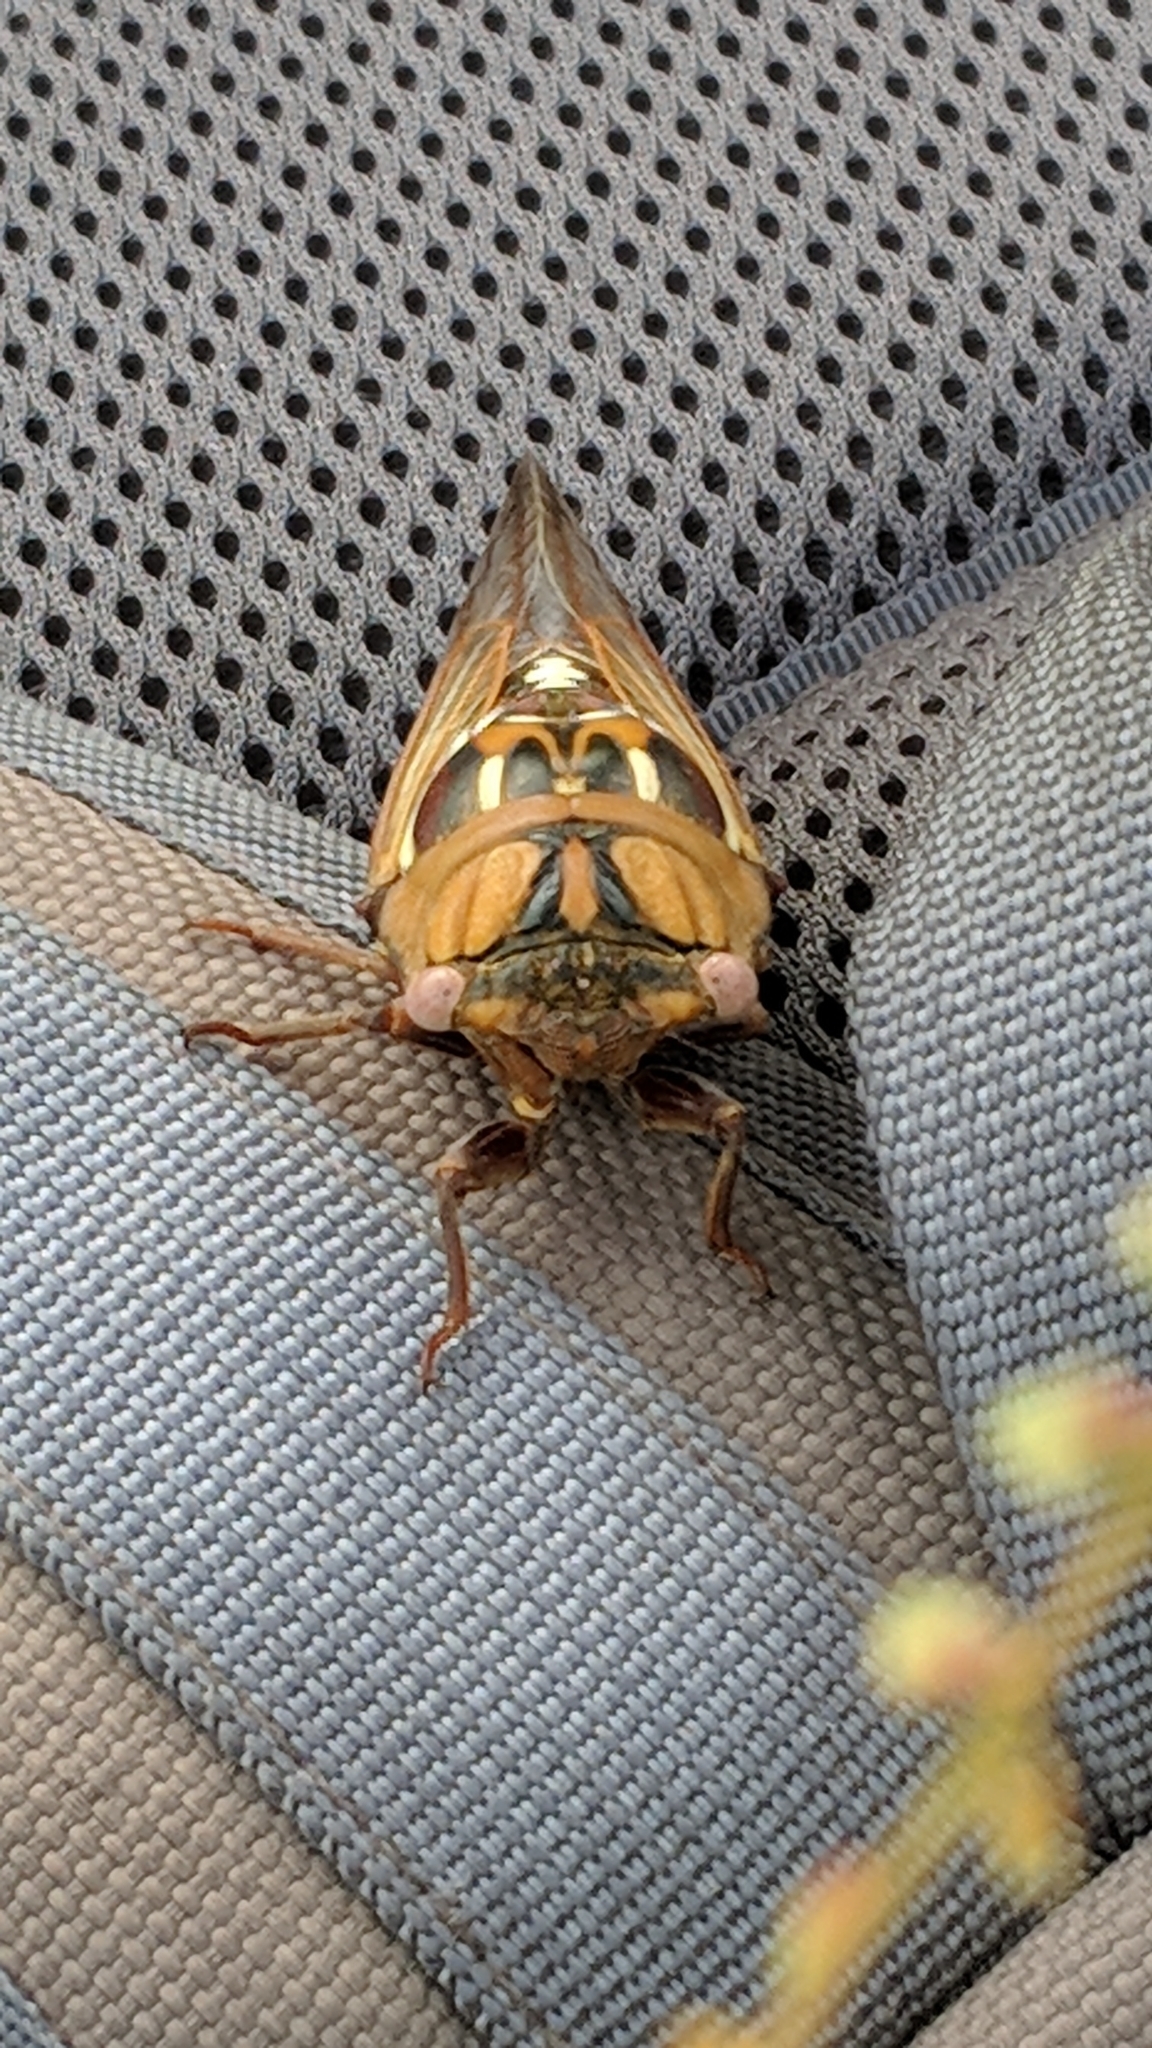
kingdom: Animalia
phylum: Arthropoda
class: Insecta
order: Hemiptera
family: Cicadidae
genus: Megatibicen
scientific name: Megatibicen dorsatus
